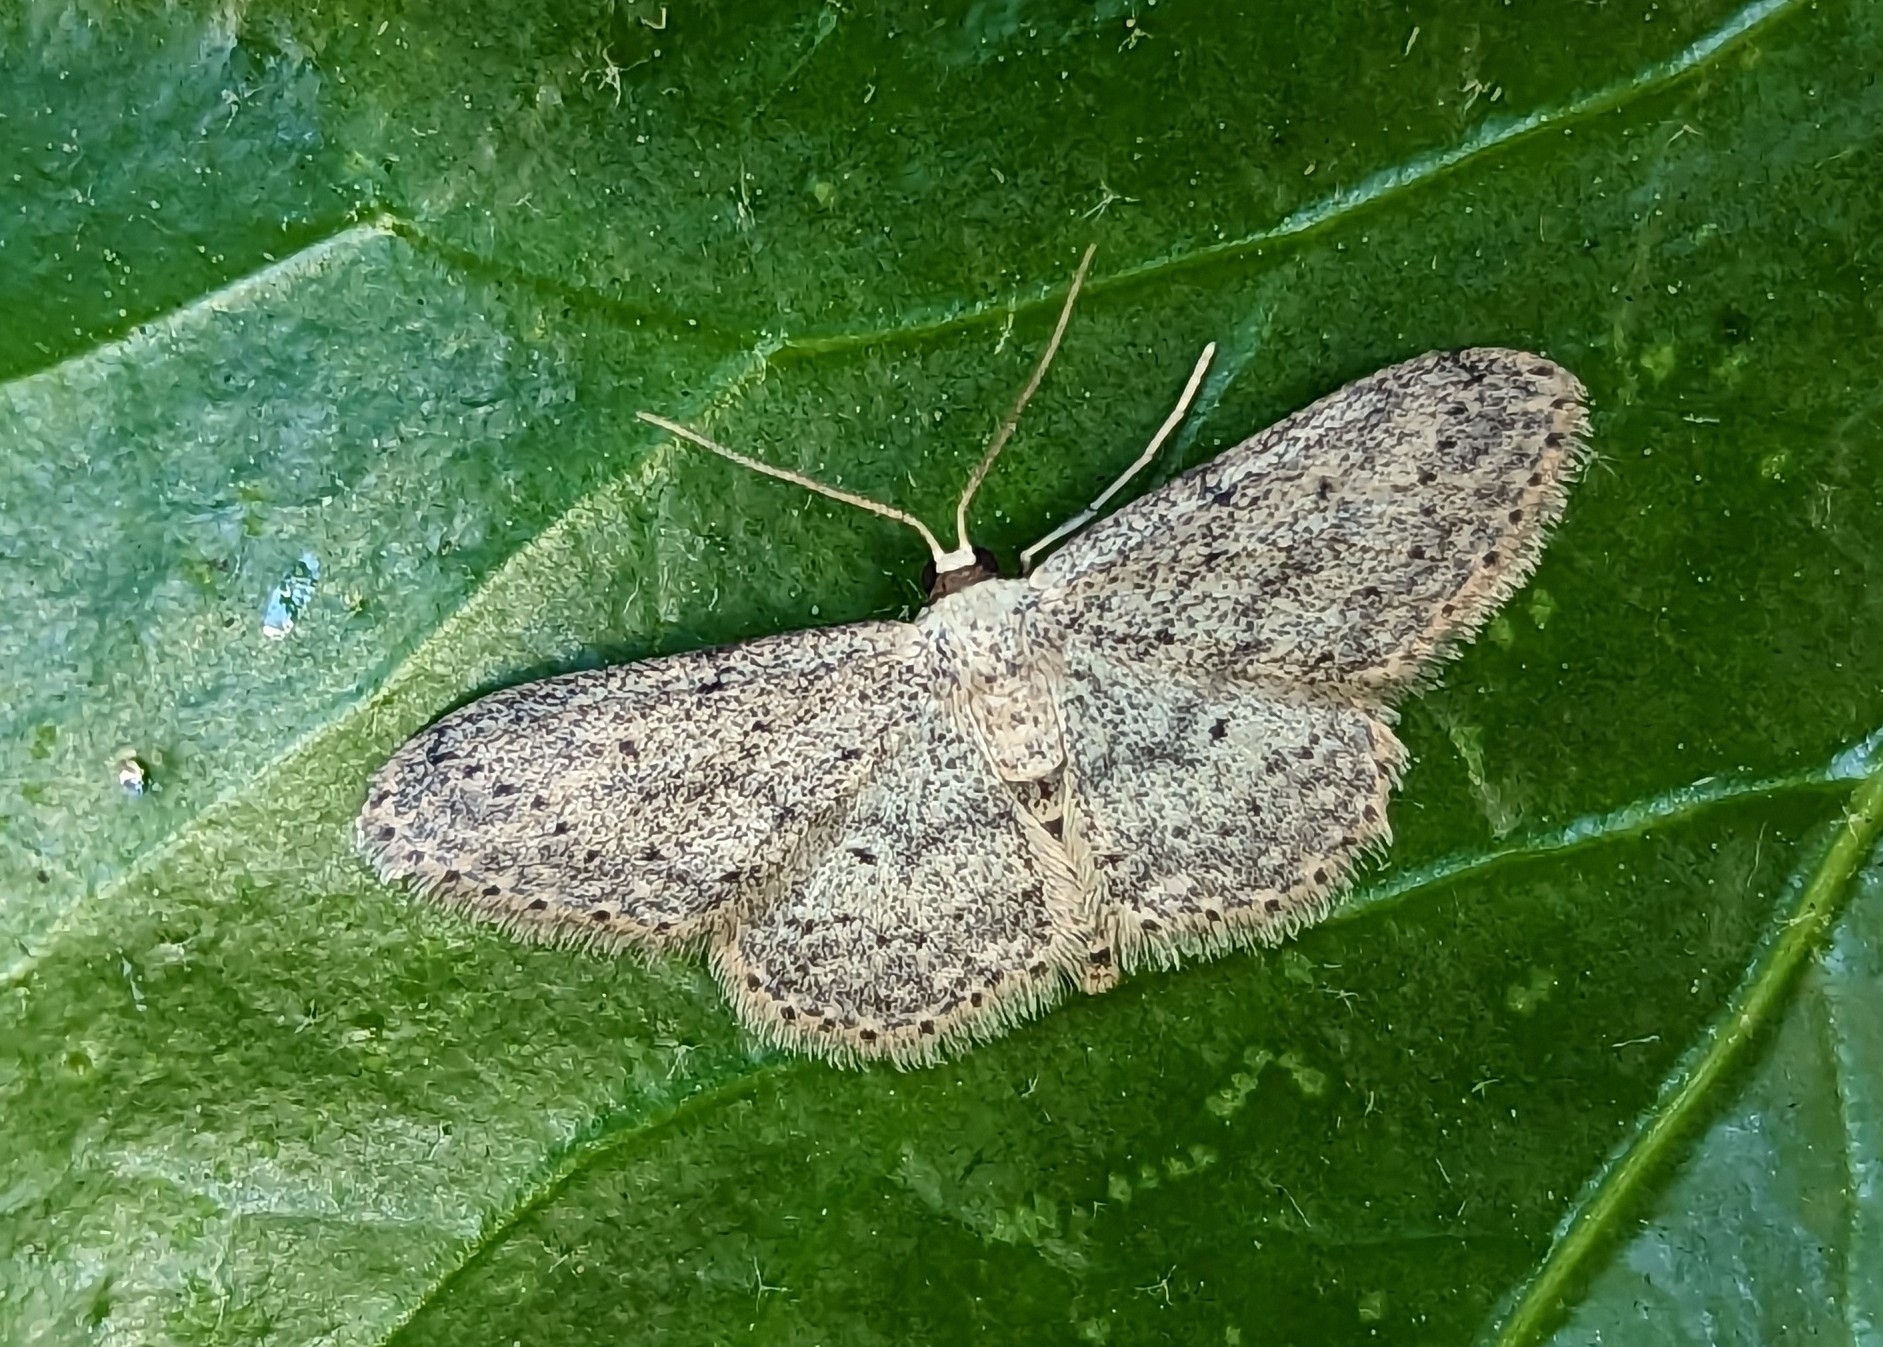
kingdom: Animalia
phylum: Arthropoda
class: Insecta
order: Lepidoptera
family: Geometridae
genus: Idaea
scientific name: Idaea seriata
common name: Small dusty wave
